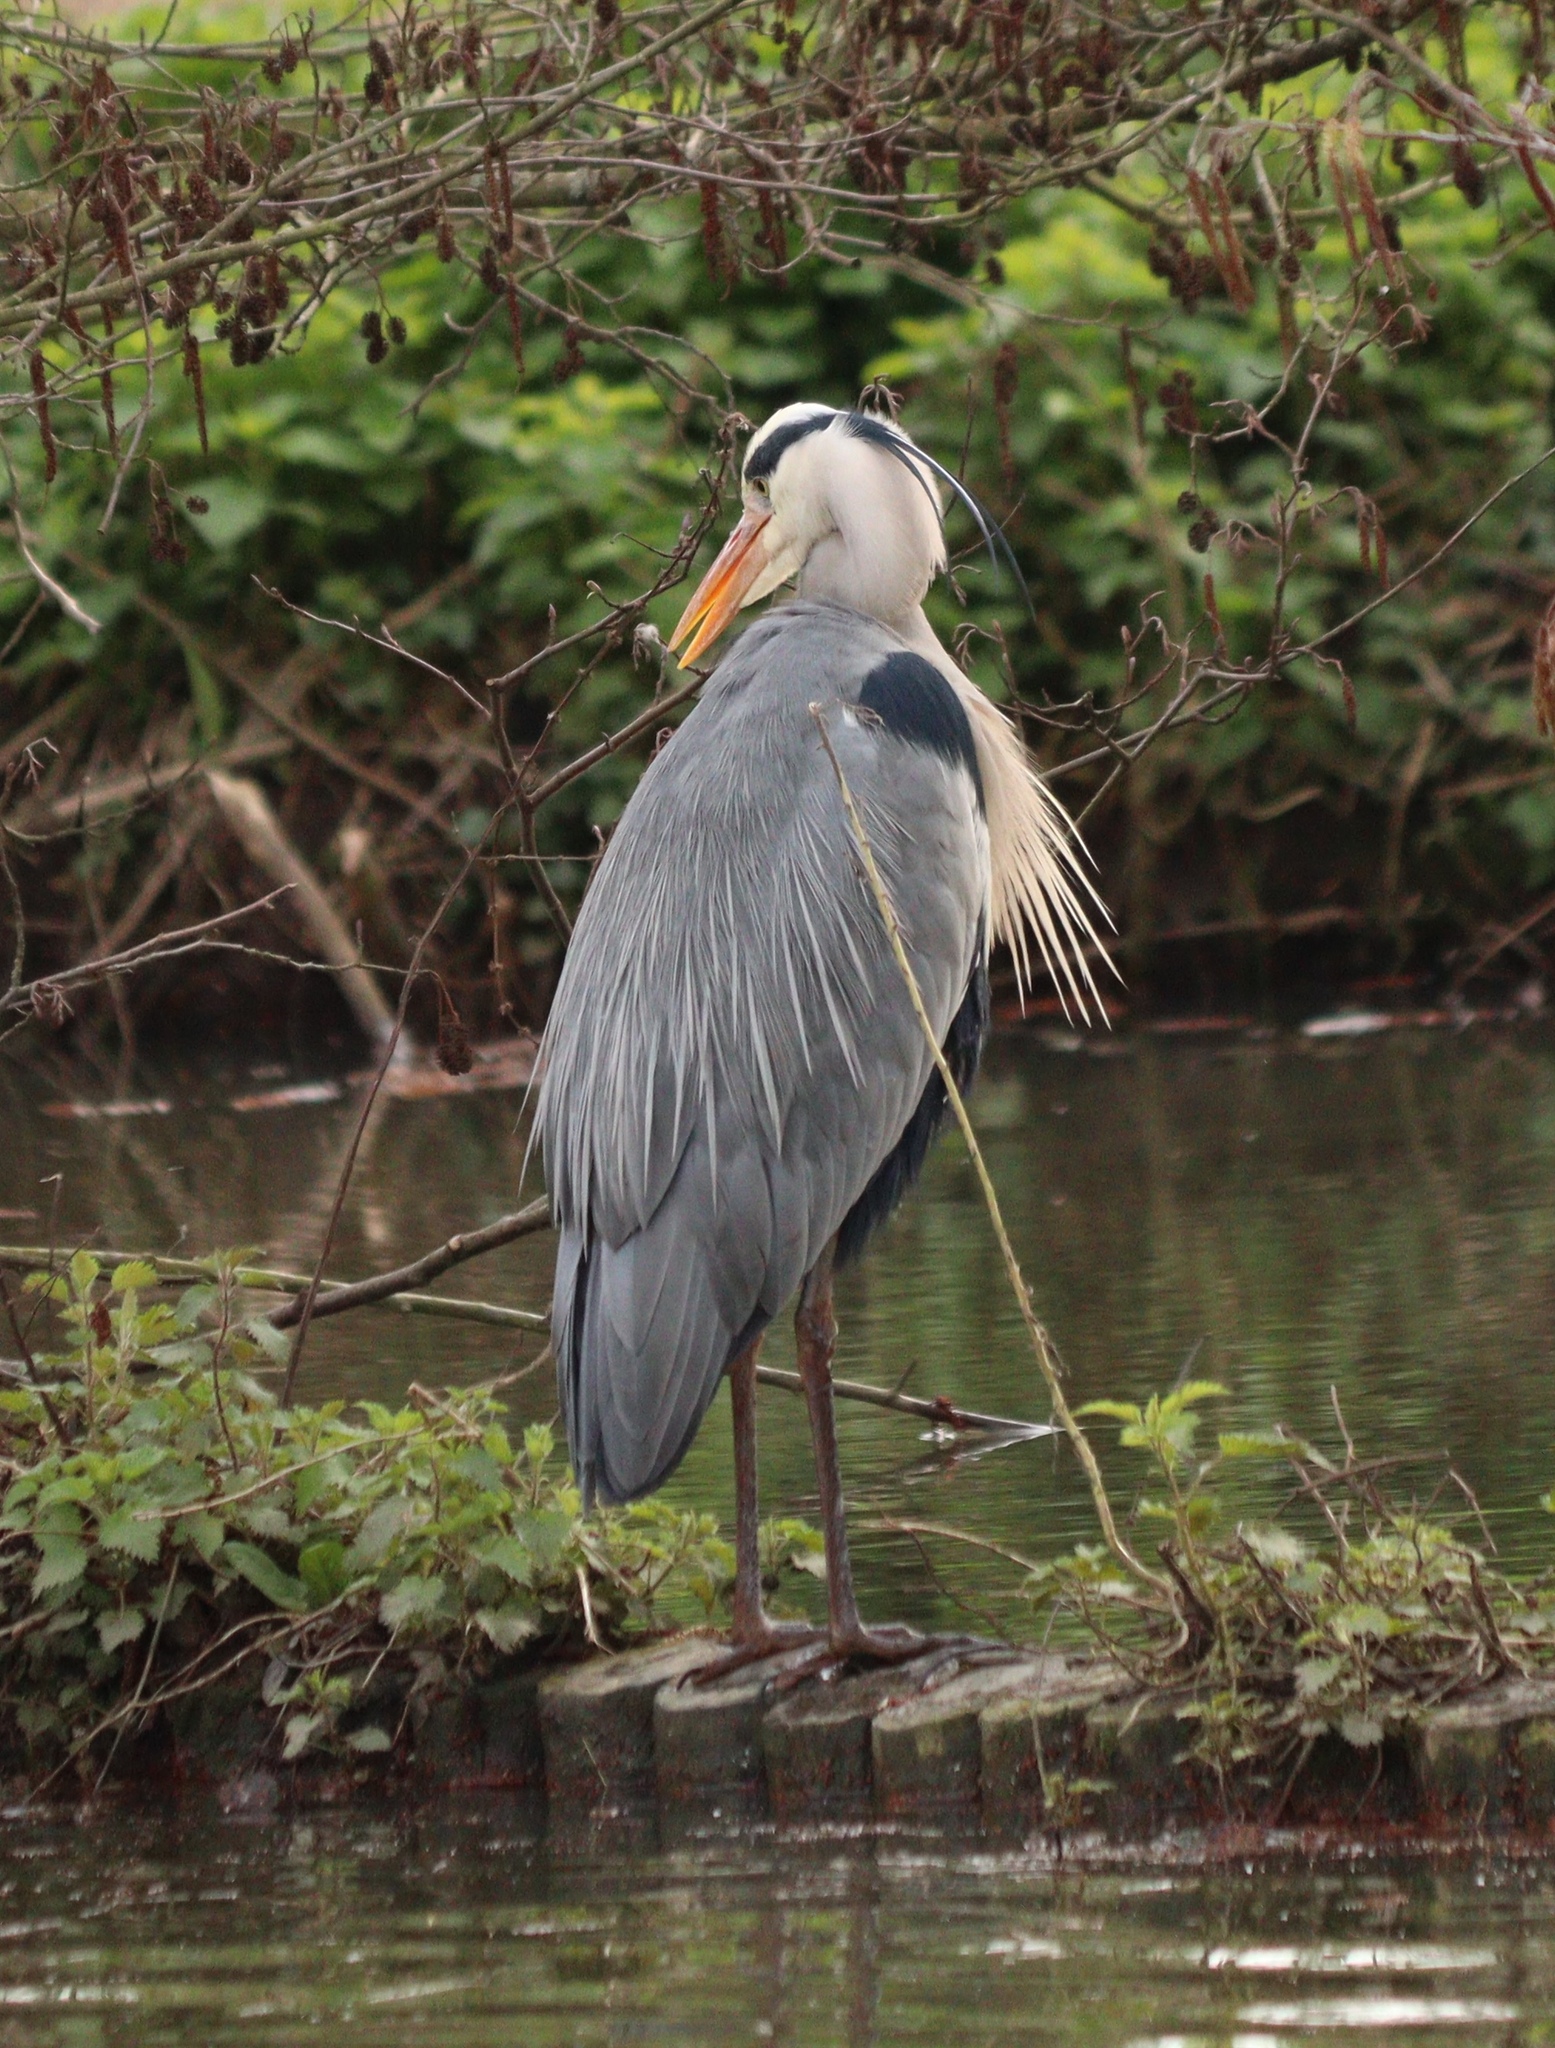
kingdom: Animalia
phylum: Chordata
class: Aves
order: Pelecaniformes
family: Ardeidae
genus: Ardea
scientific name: Ardea cinerea
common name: Grey heron
